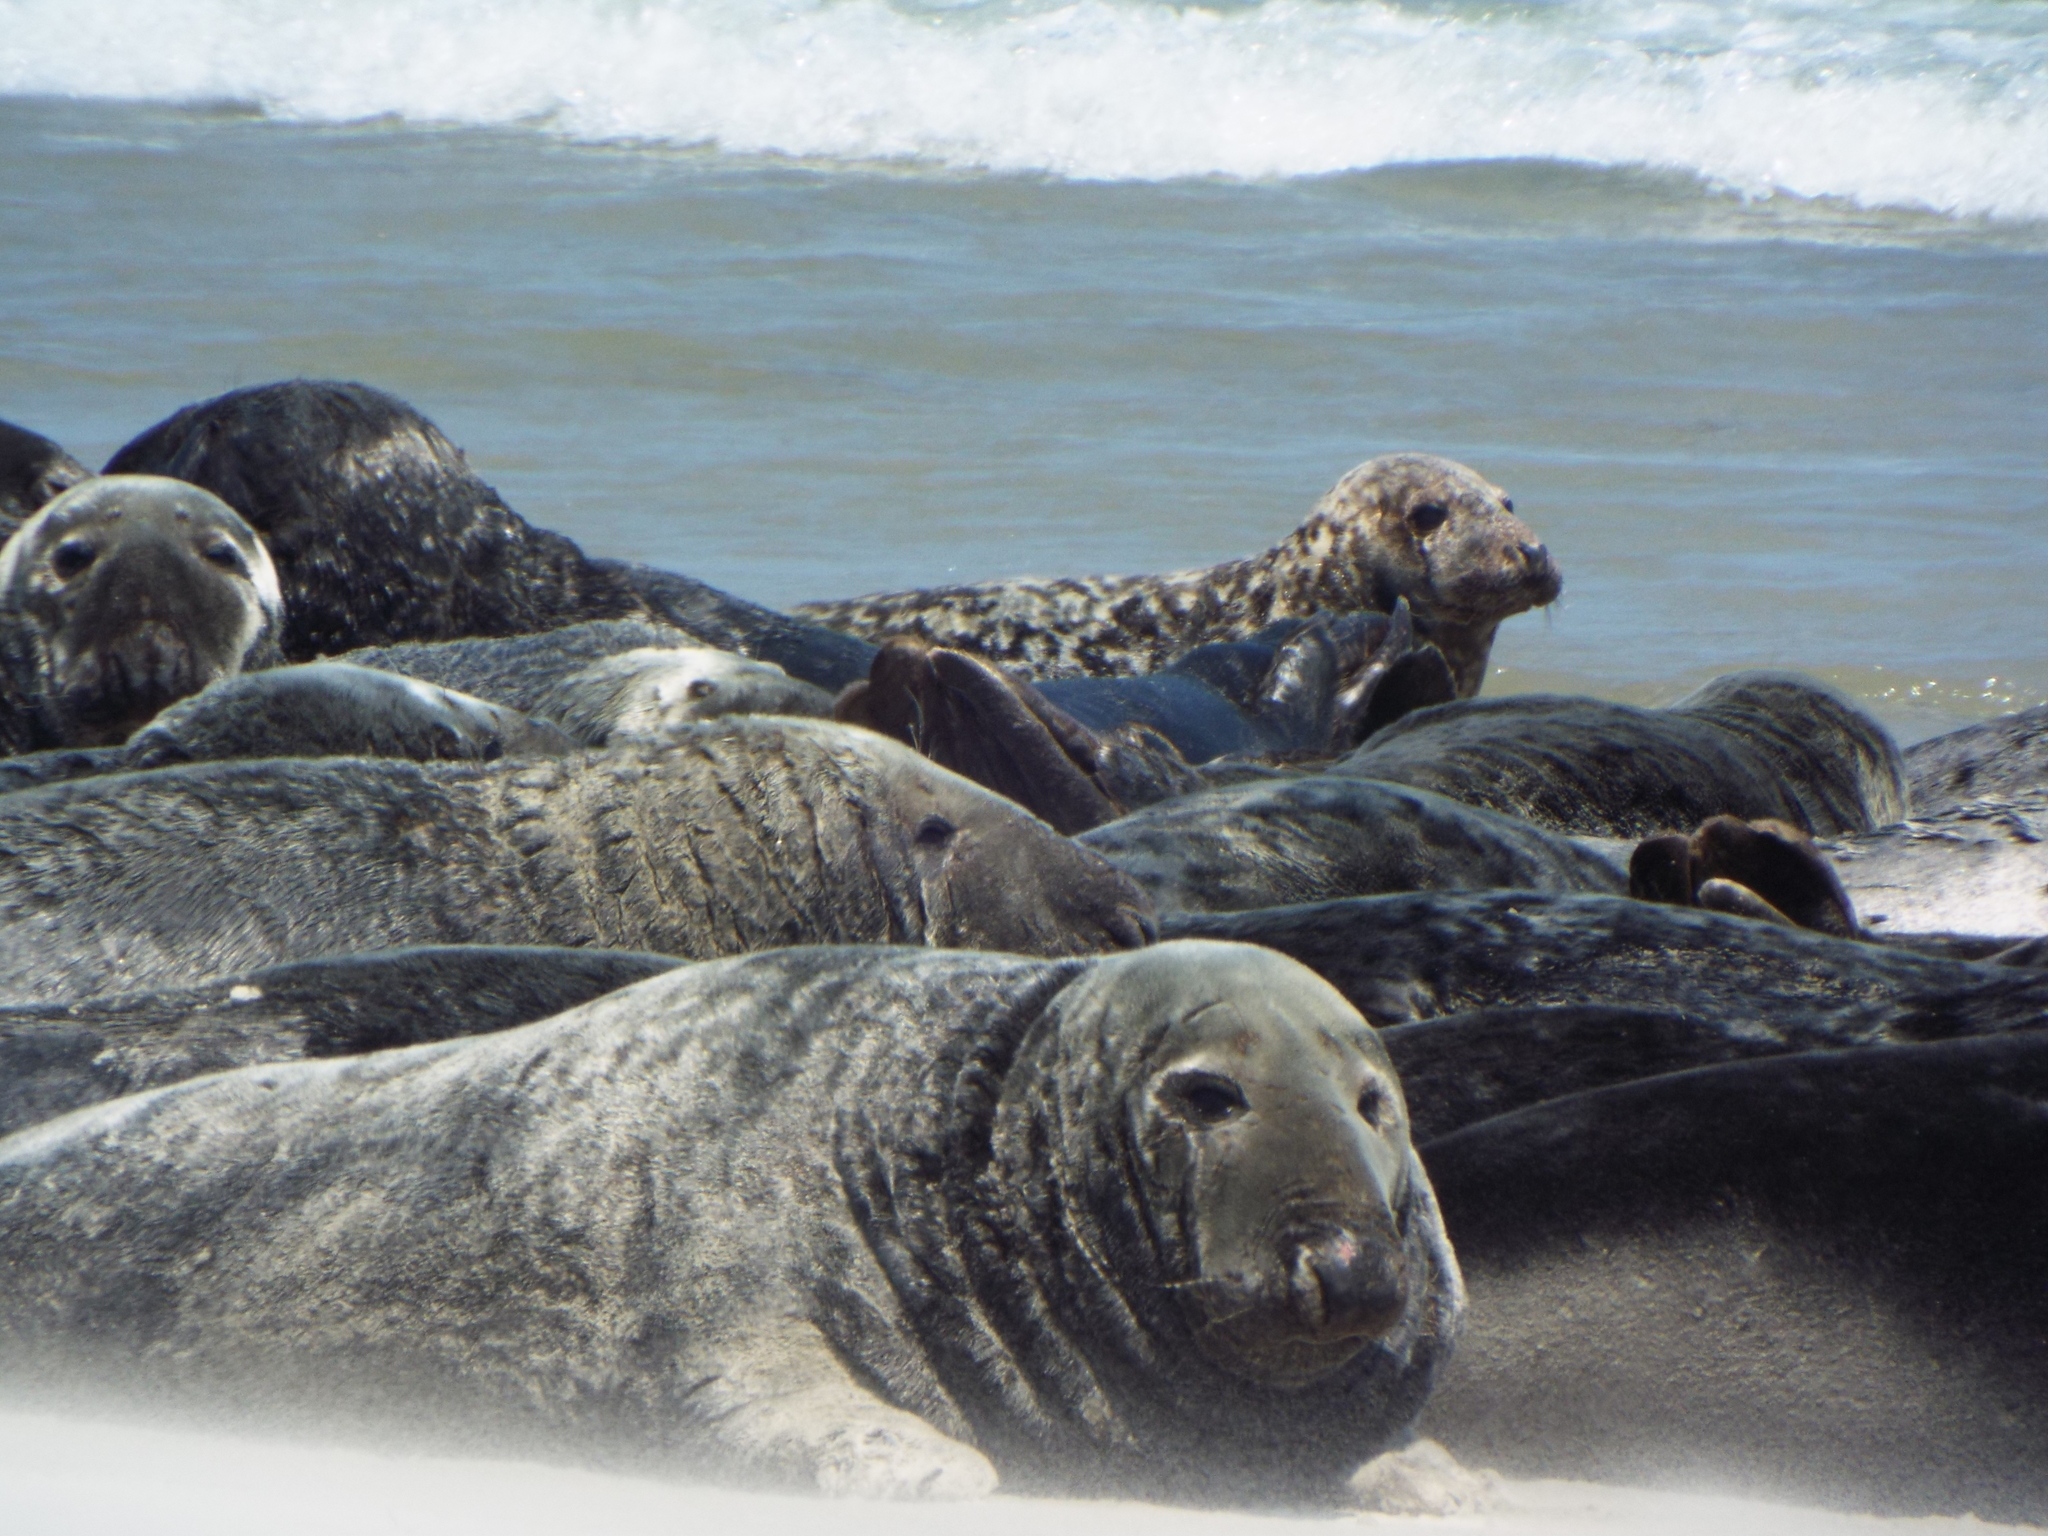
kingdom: Animalia
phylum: Chordata
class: Mammalia
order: Carnivora
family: Phocidae
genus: Halichoerus
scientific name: Halichoerus grypus
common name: Grey seal
